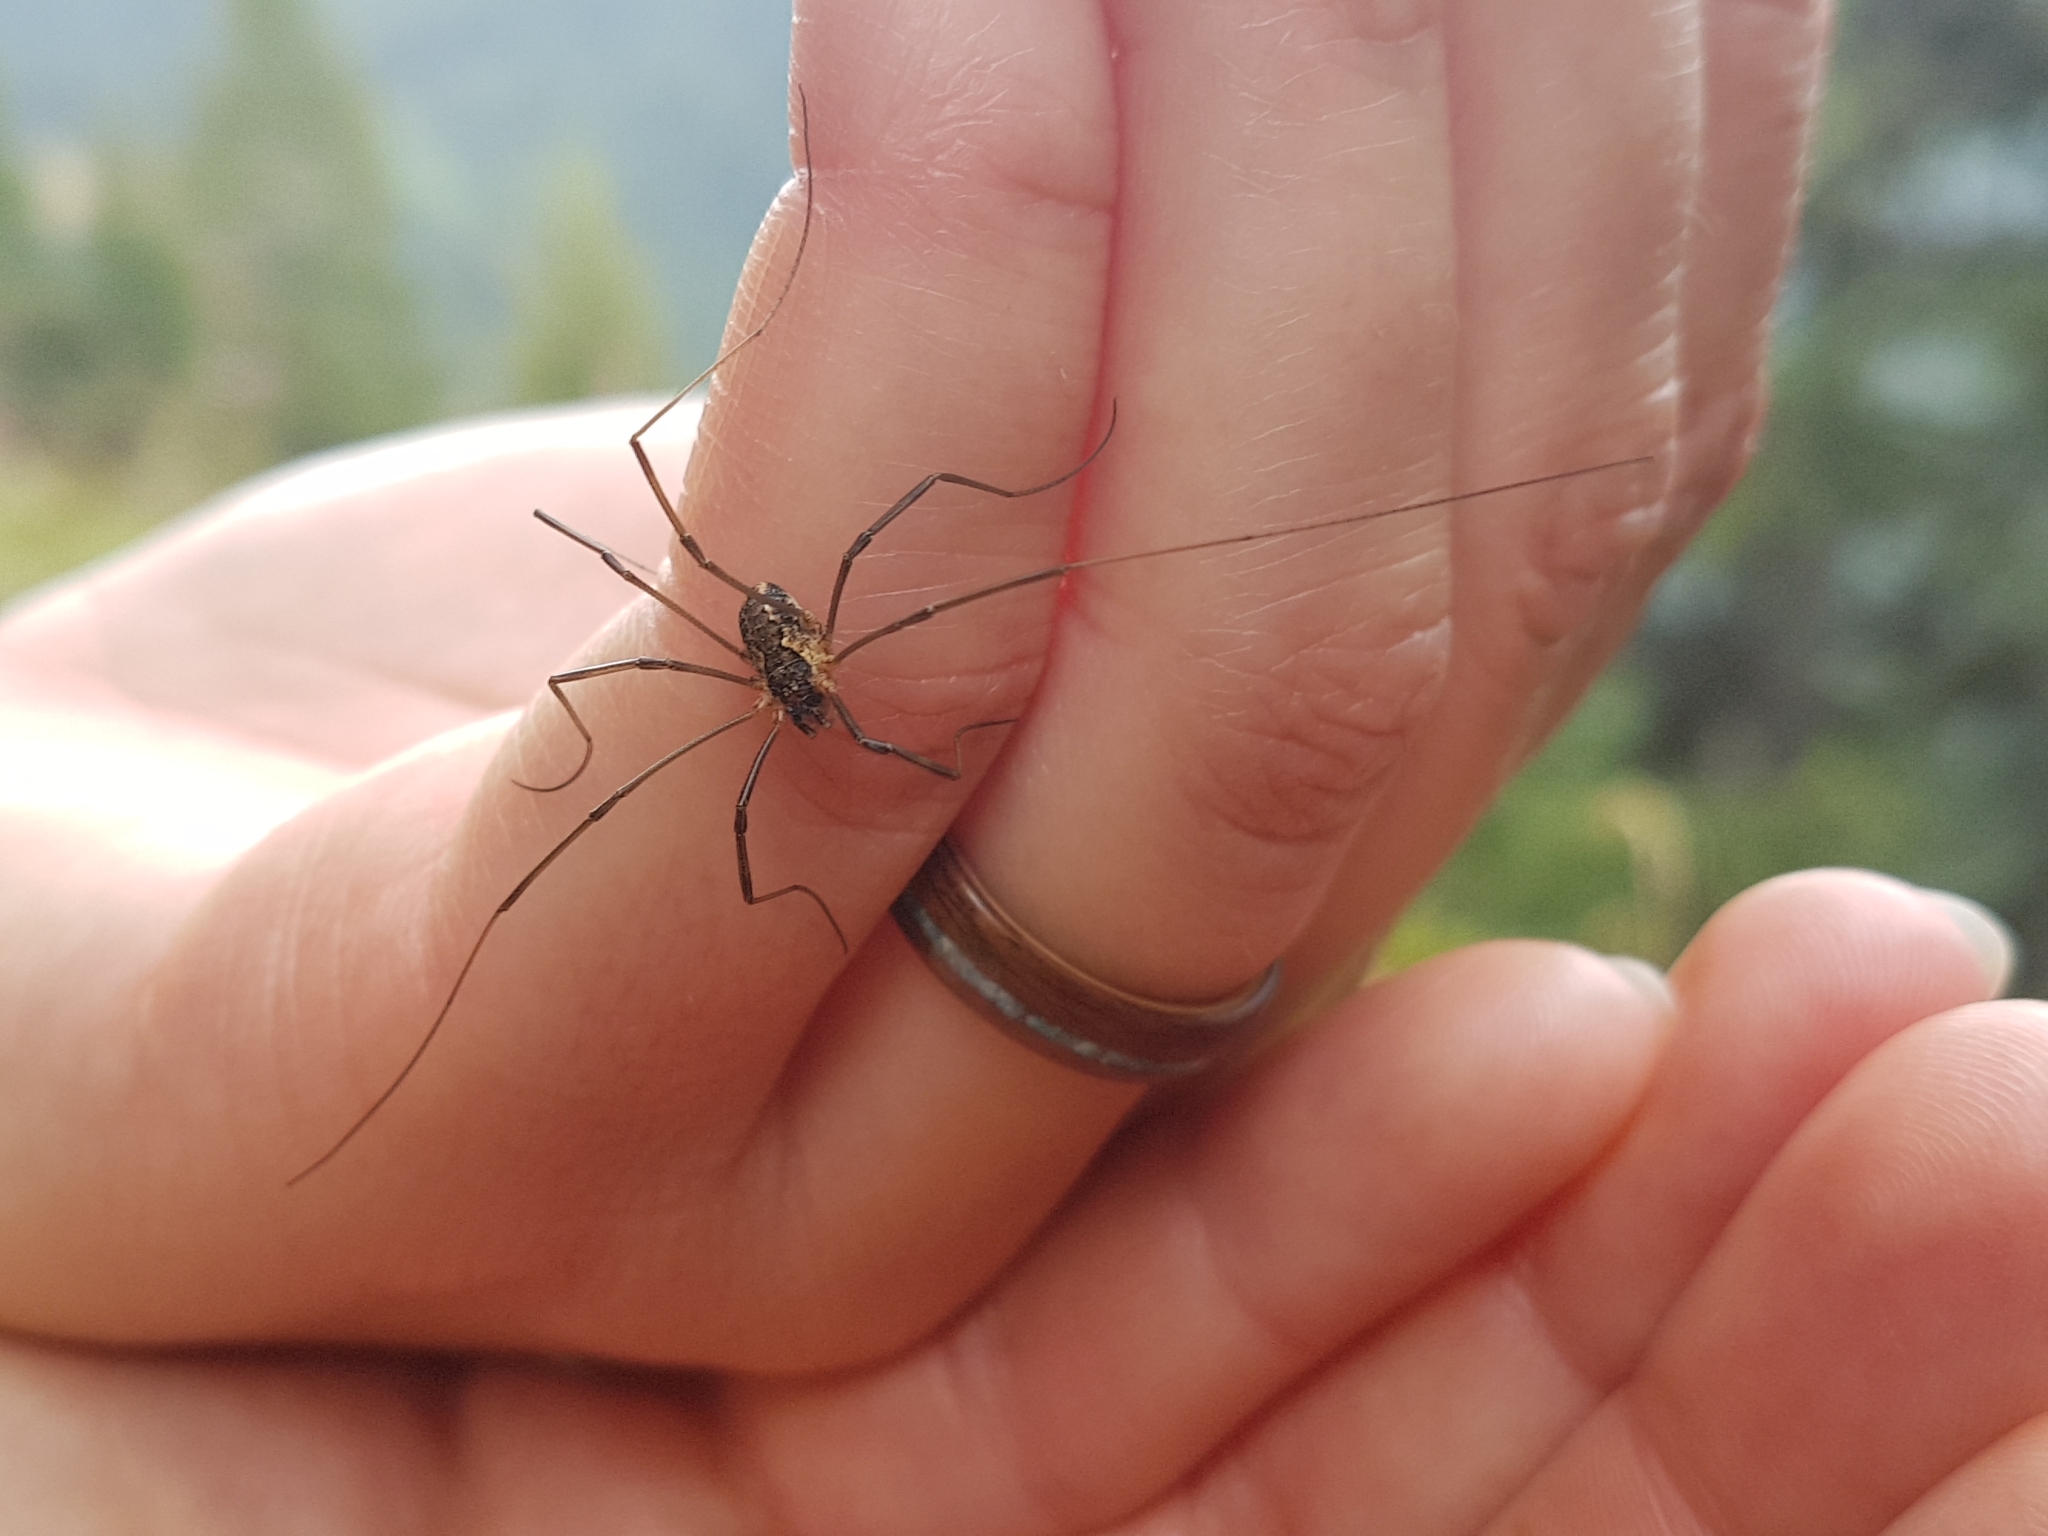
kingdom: Animalia
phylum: Arthropoda
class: Arachnida
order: Opiliones
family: Phalangiidae
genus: Mitopus
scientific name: Mitopus morio
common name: Saddleback harvestman
